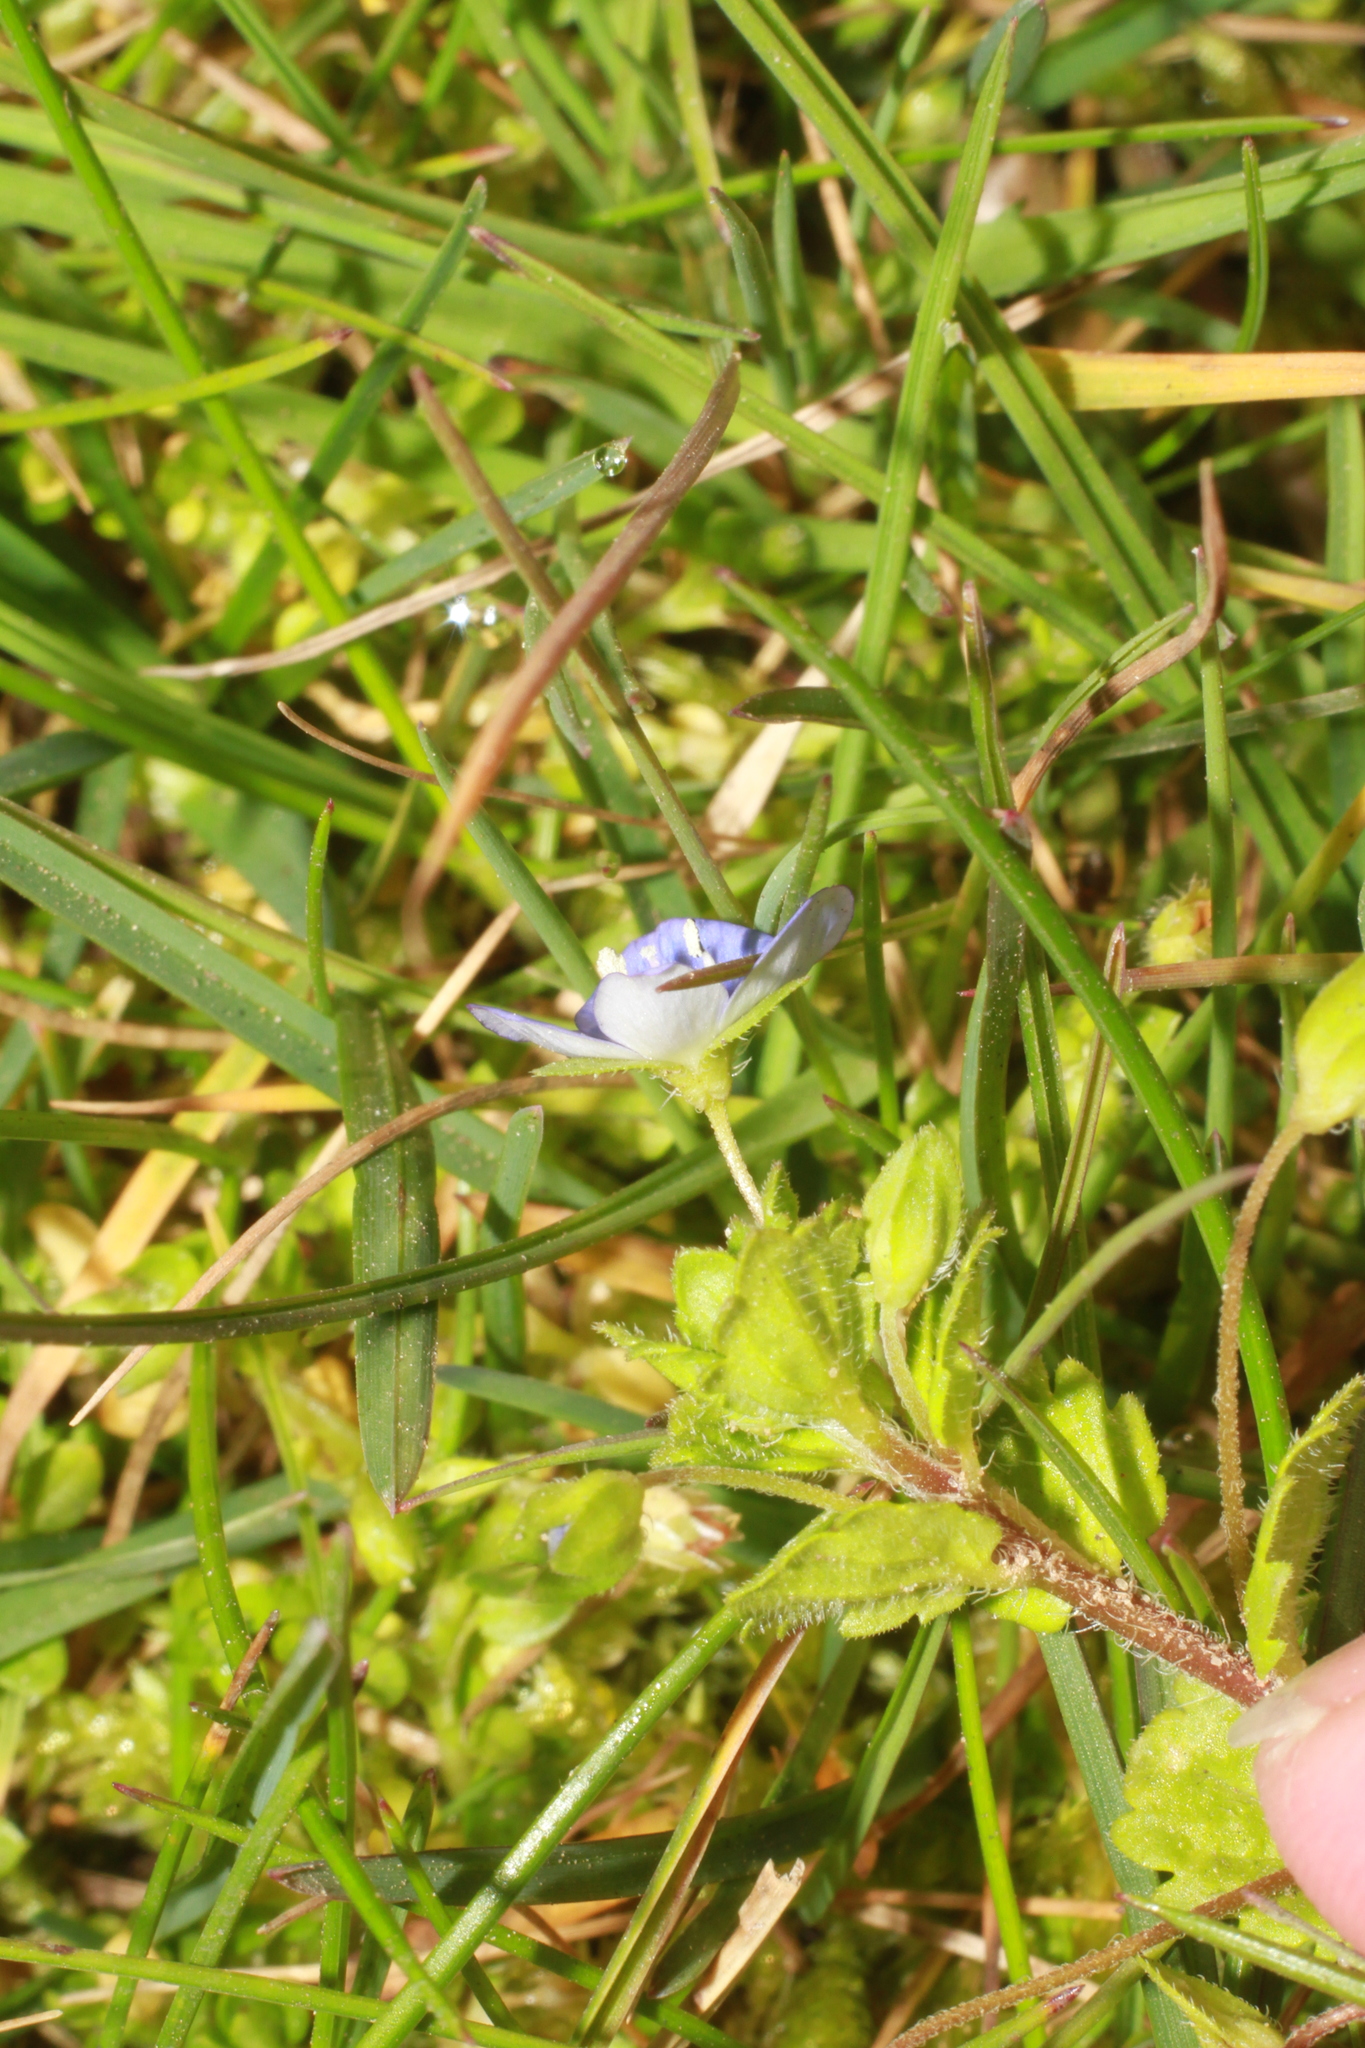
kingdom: Plantae
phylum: Tracheophyta
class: Magnoliopsida
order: Lamiales
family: Plantaginaceae
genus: Veronica
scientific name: Veronica persica
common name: Common field-speedwell
